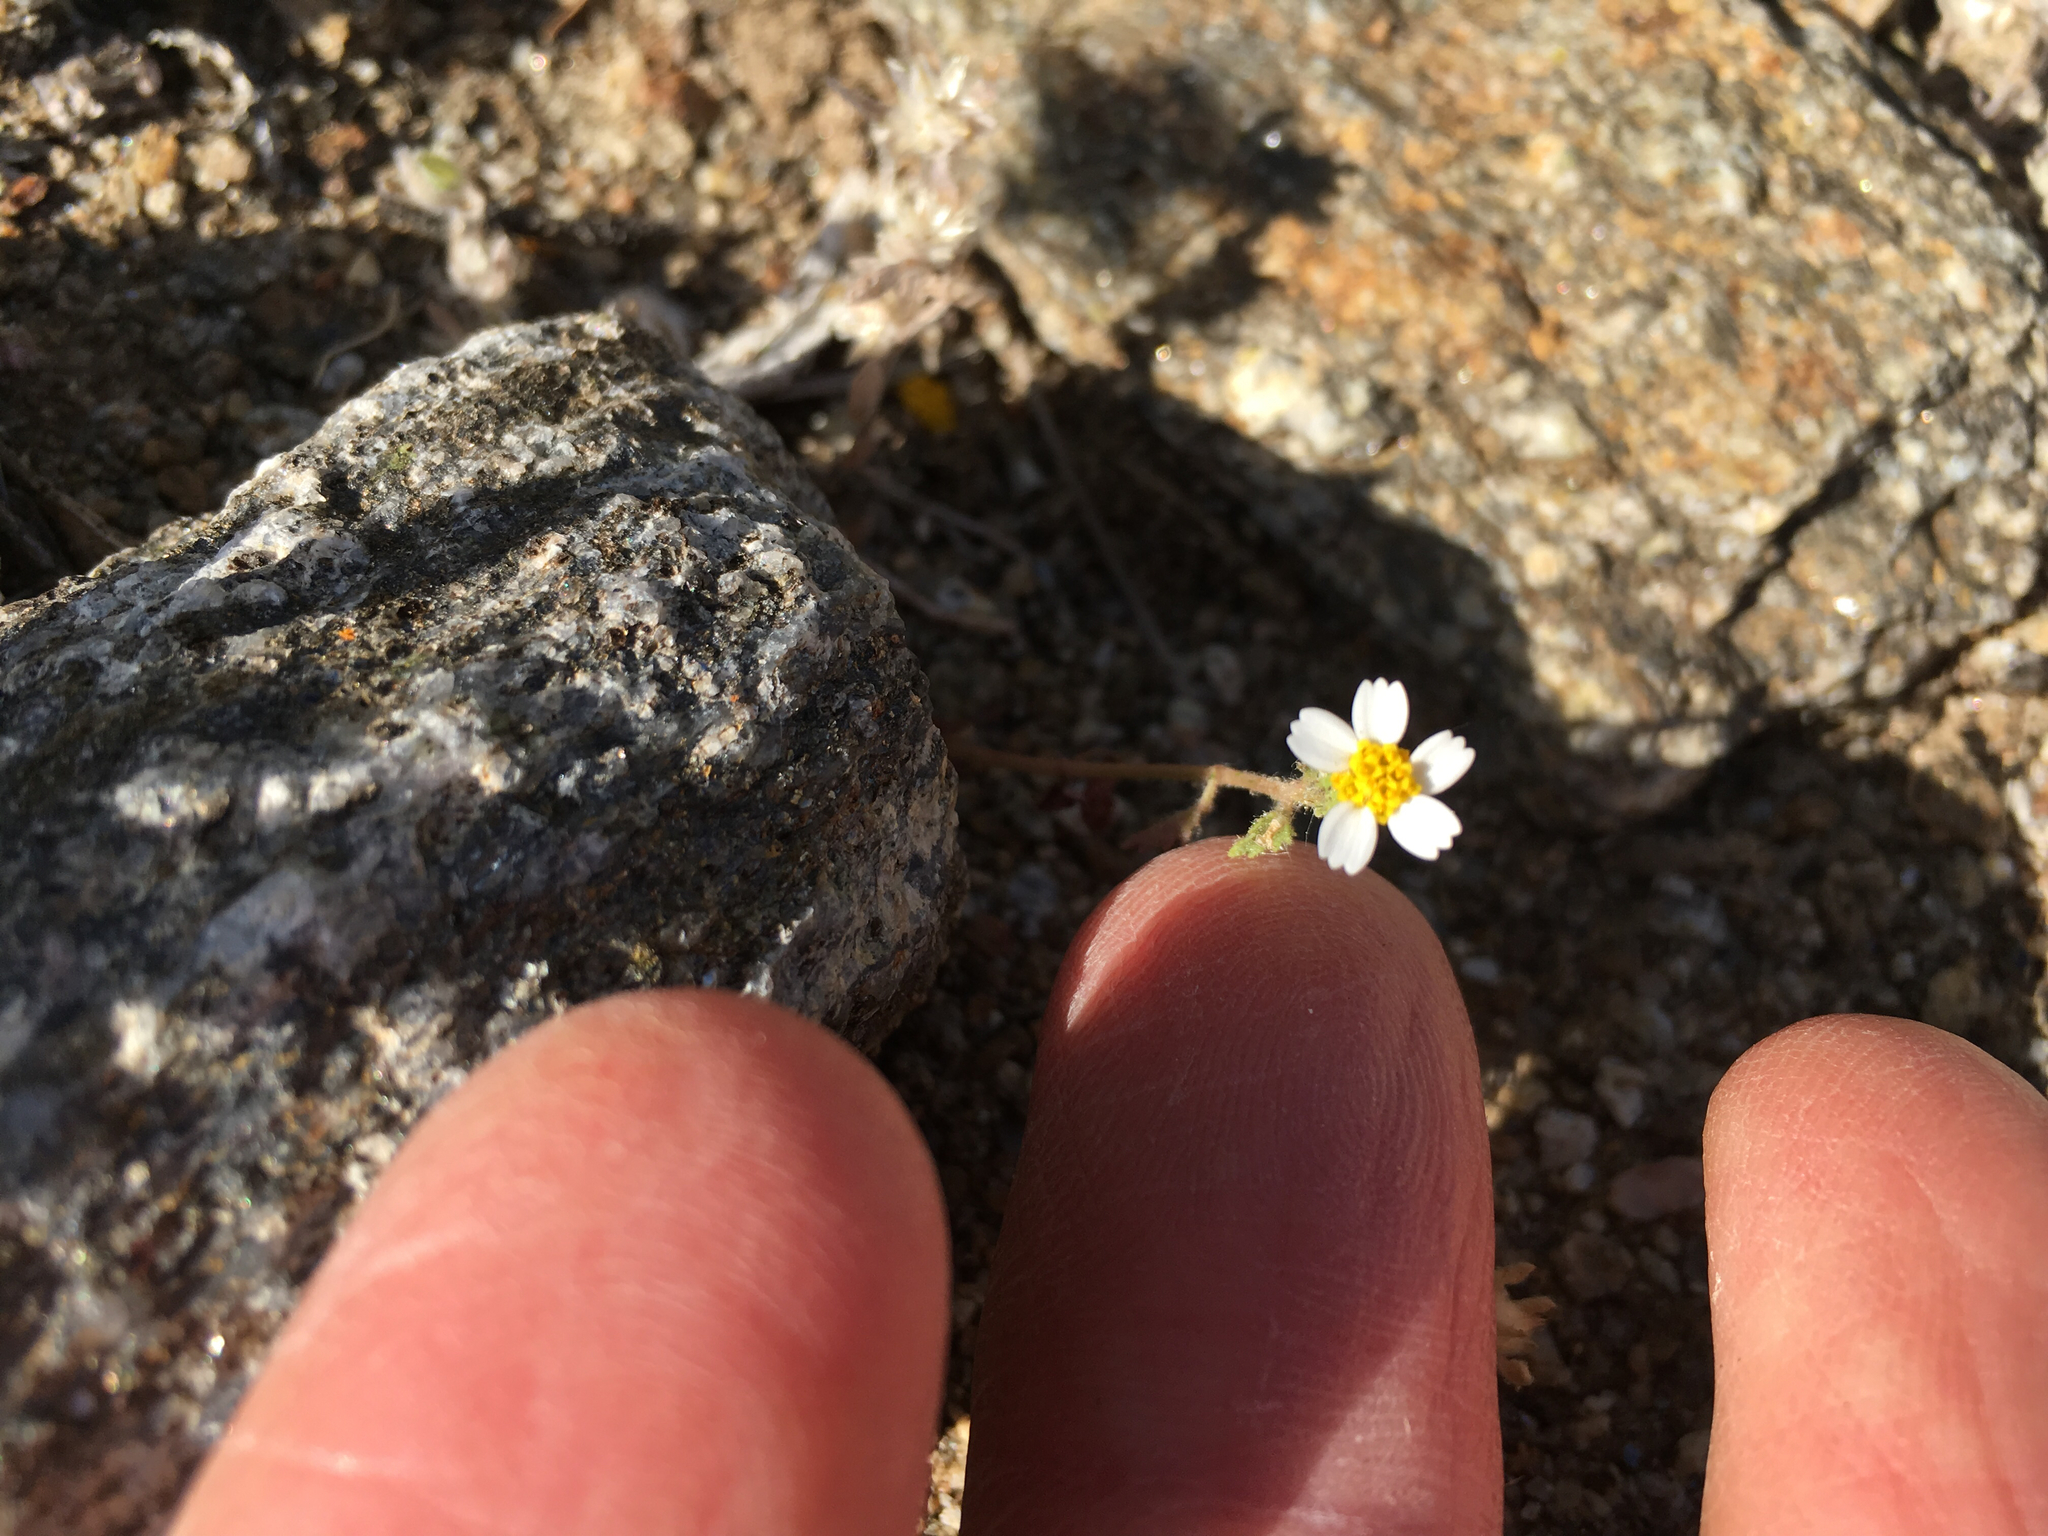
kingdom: Plantae
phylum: Tracheophyta
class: Magnoliopsida
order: Asterales
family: Asteraceae
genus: Laphamia
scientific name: Laphamia emoryi
